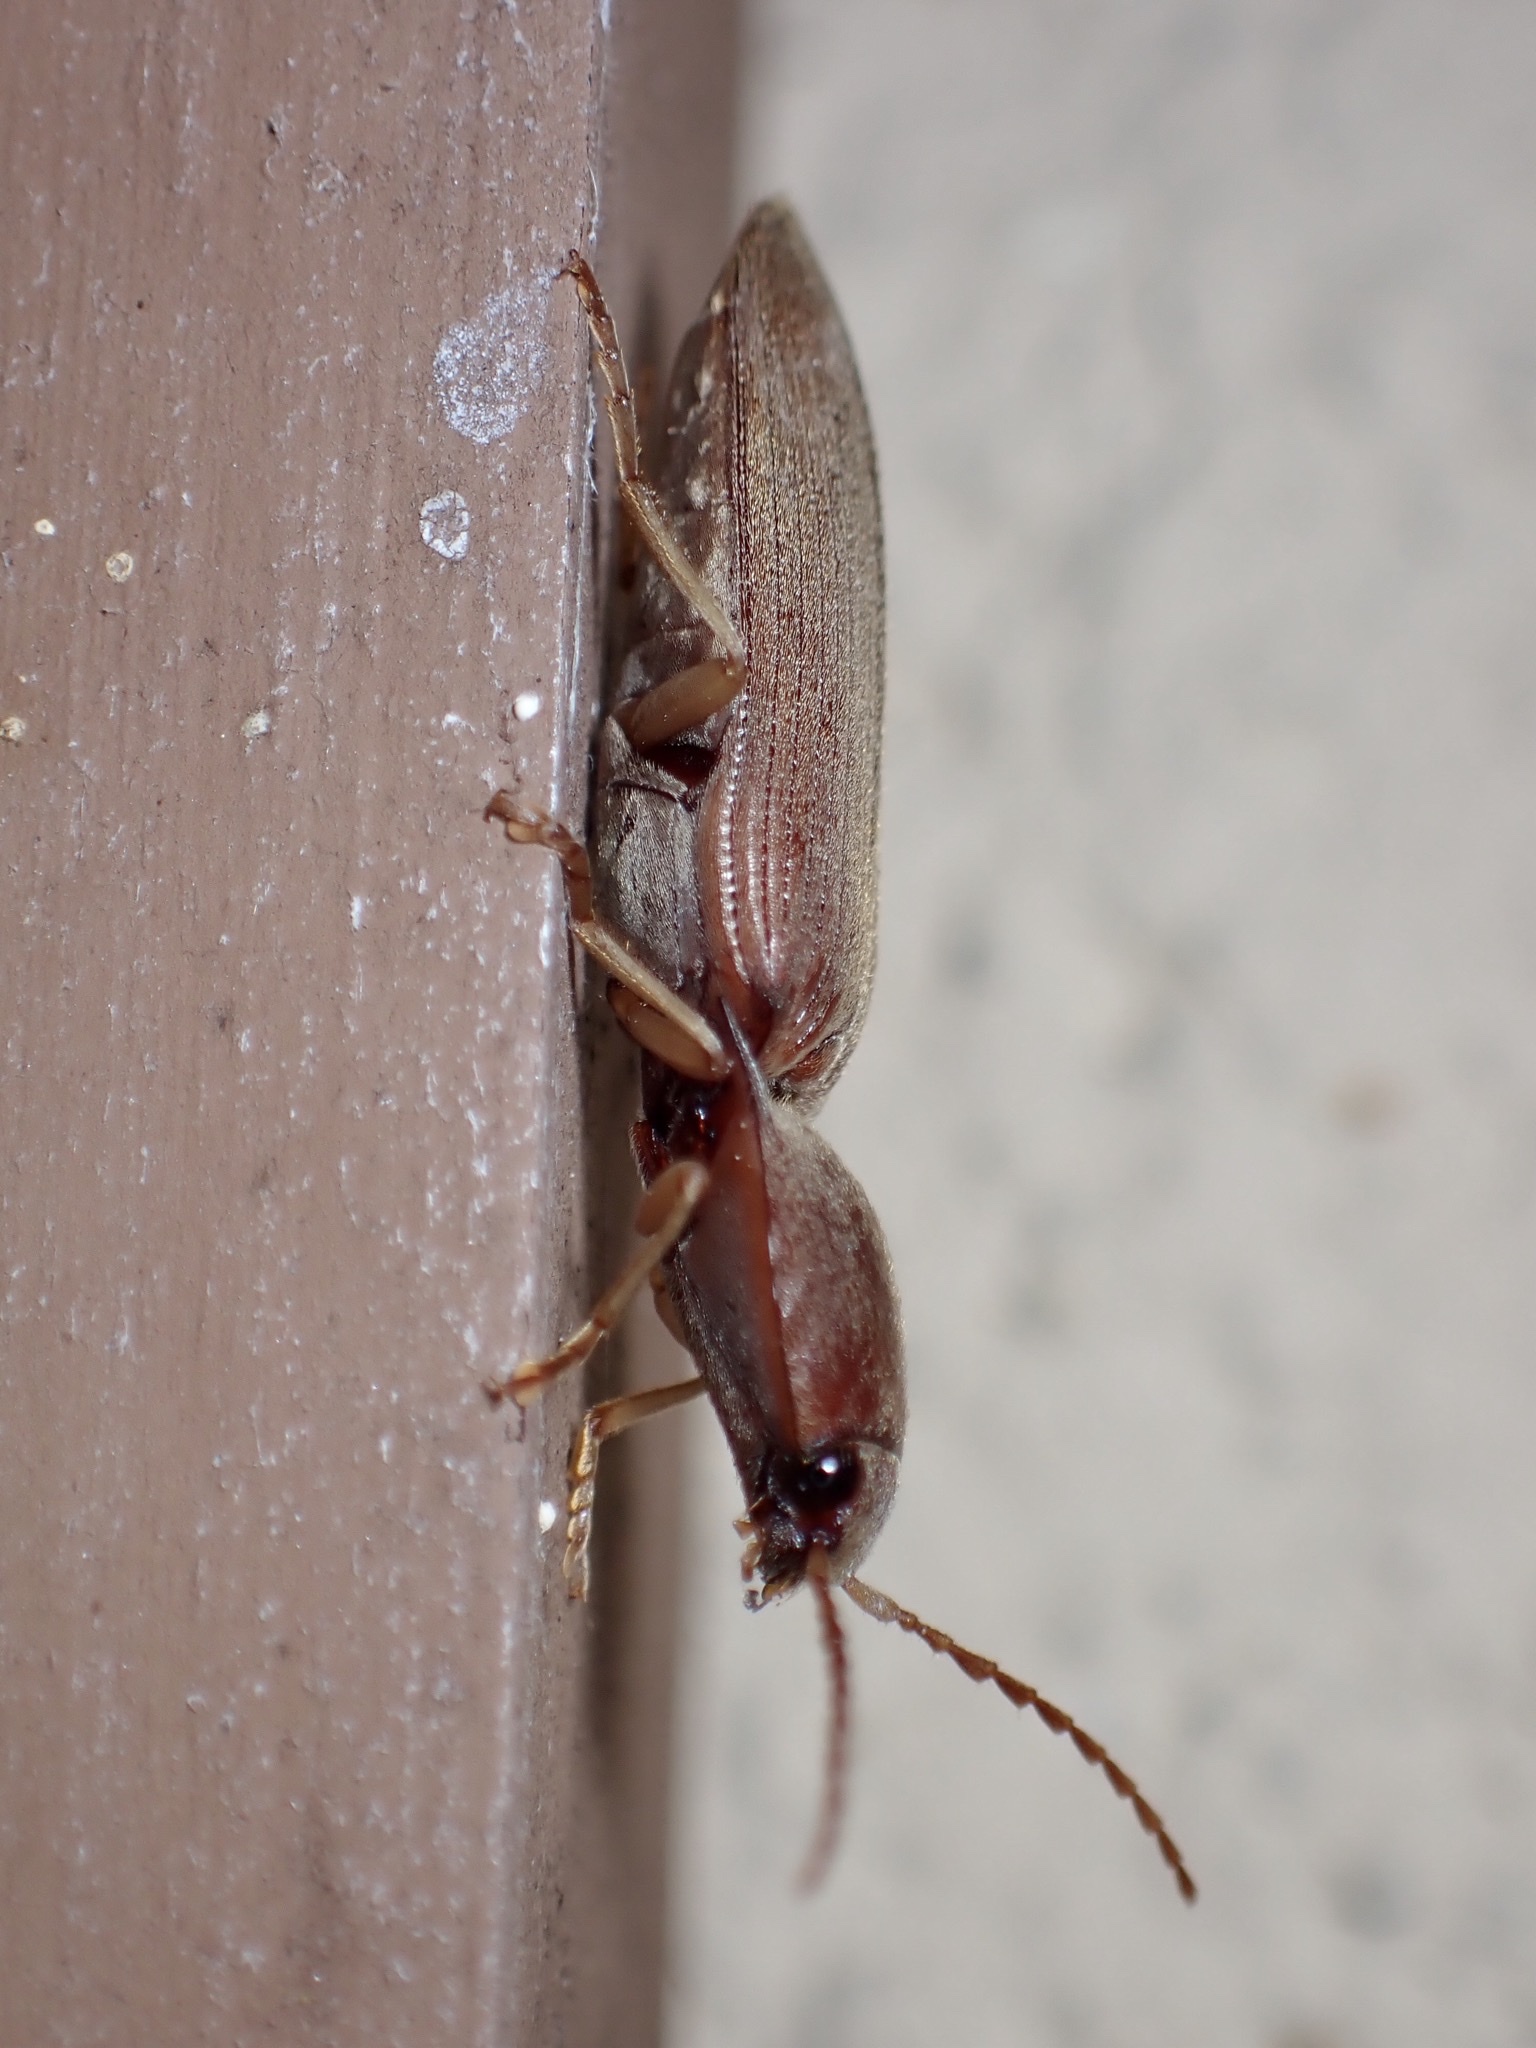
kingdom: Animalia
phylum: Arthropoda
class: Insecta
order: Coleoptera
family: Elateridae
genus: Monocrepidius
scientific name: Monocrepidius lividus
